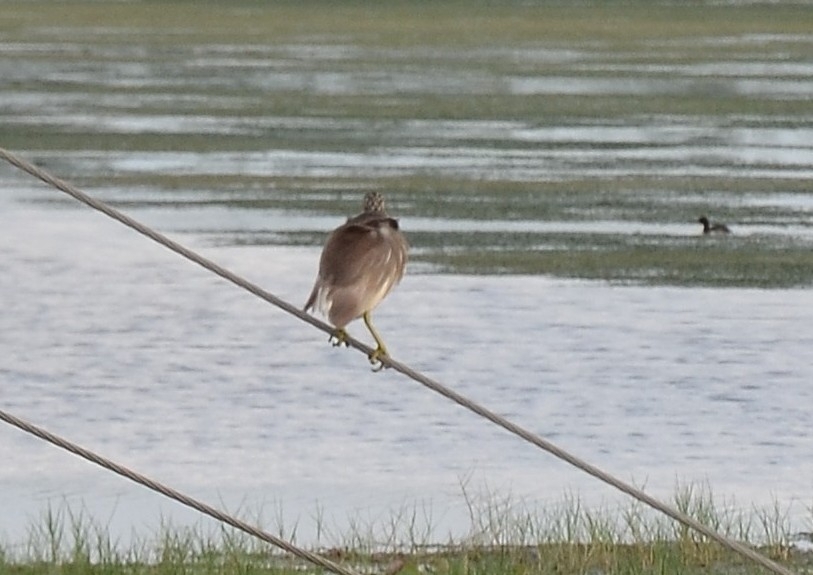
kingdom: Animalia
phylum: Chordata
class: Aves
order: Pelecaniformes
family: Ardeidae
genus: Ardeola
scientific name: Ardeola grayii
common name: Indian pond heron
